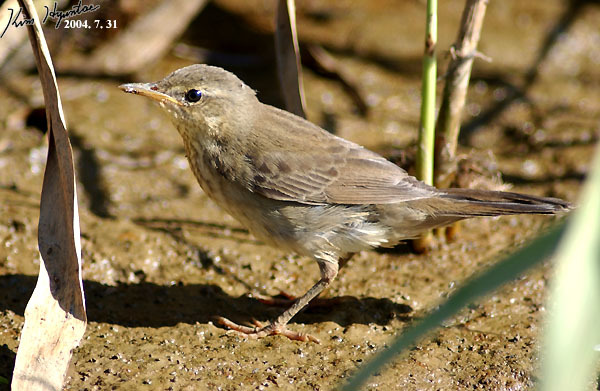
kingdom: Animalia
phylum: Chordata
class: Aves
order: Passeriformes
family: Locustellidae
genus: Locustella
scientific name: Locustella certhiola
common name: Pallas's grasshopper warbler
